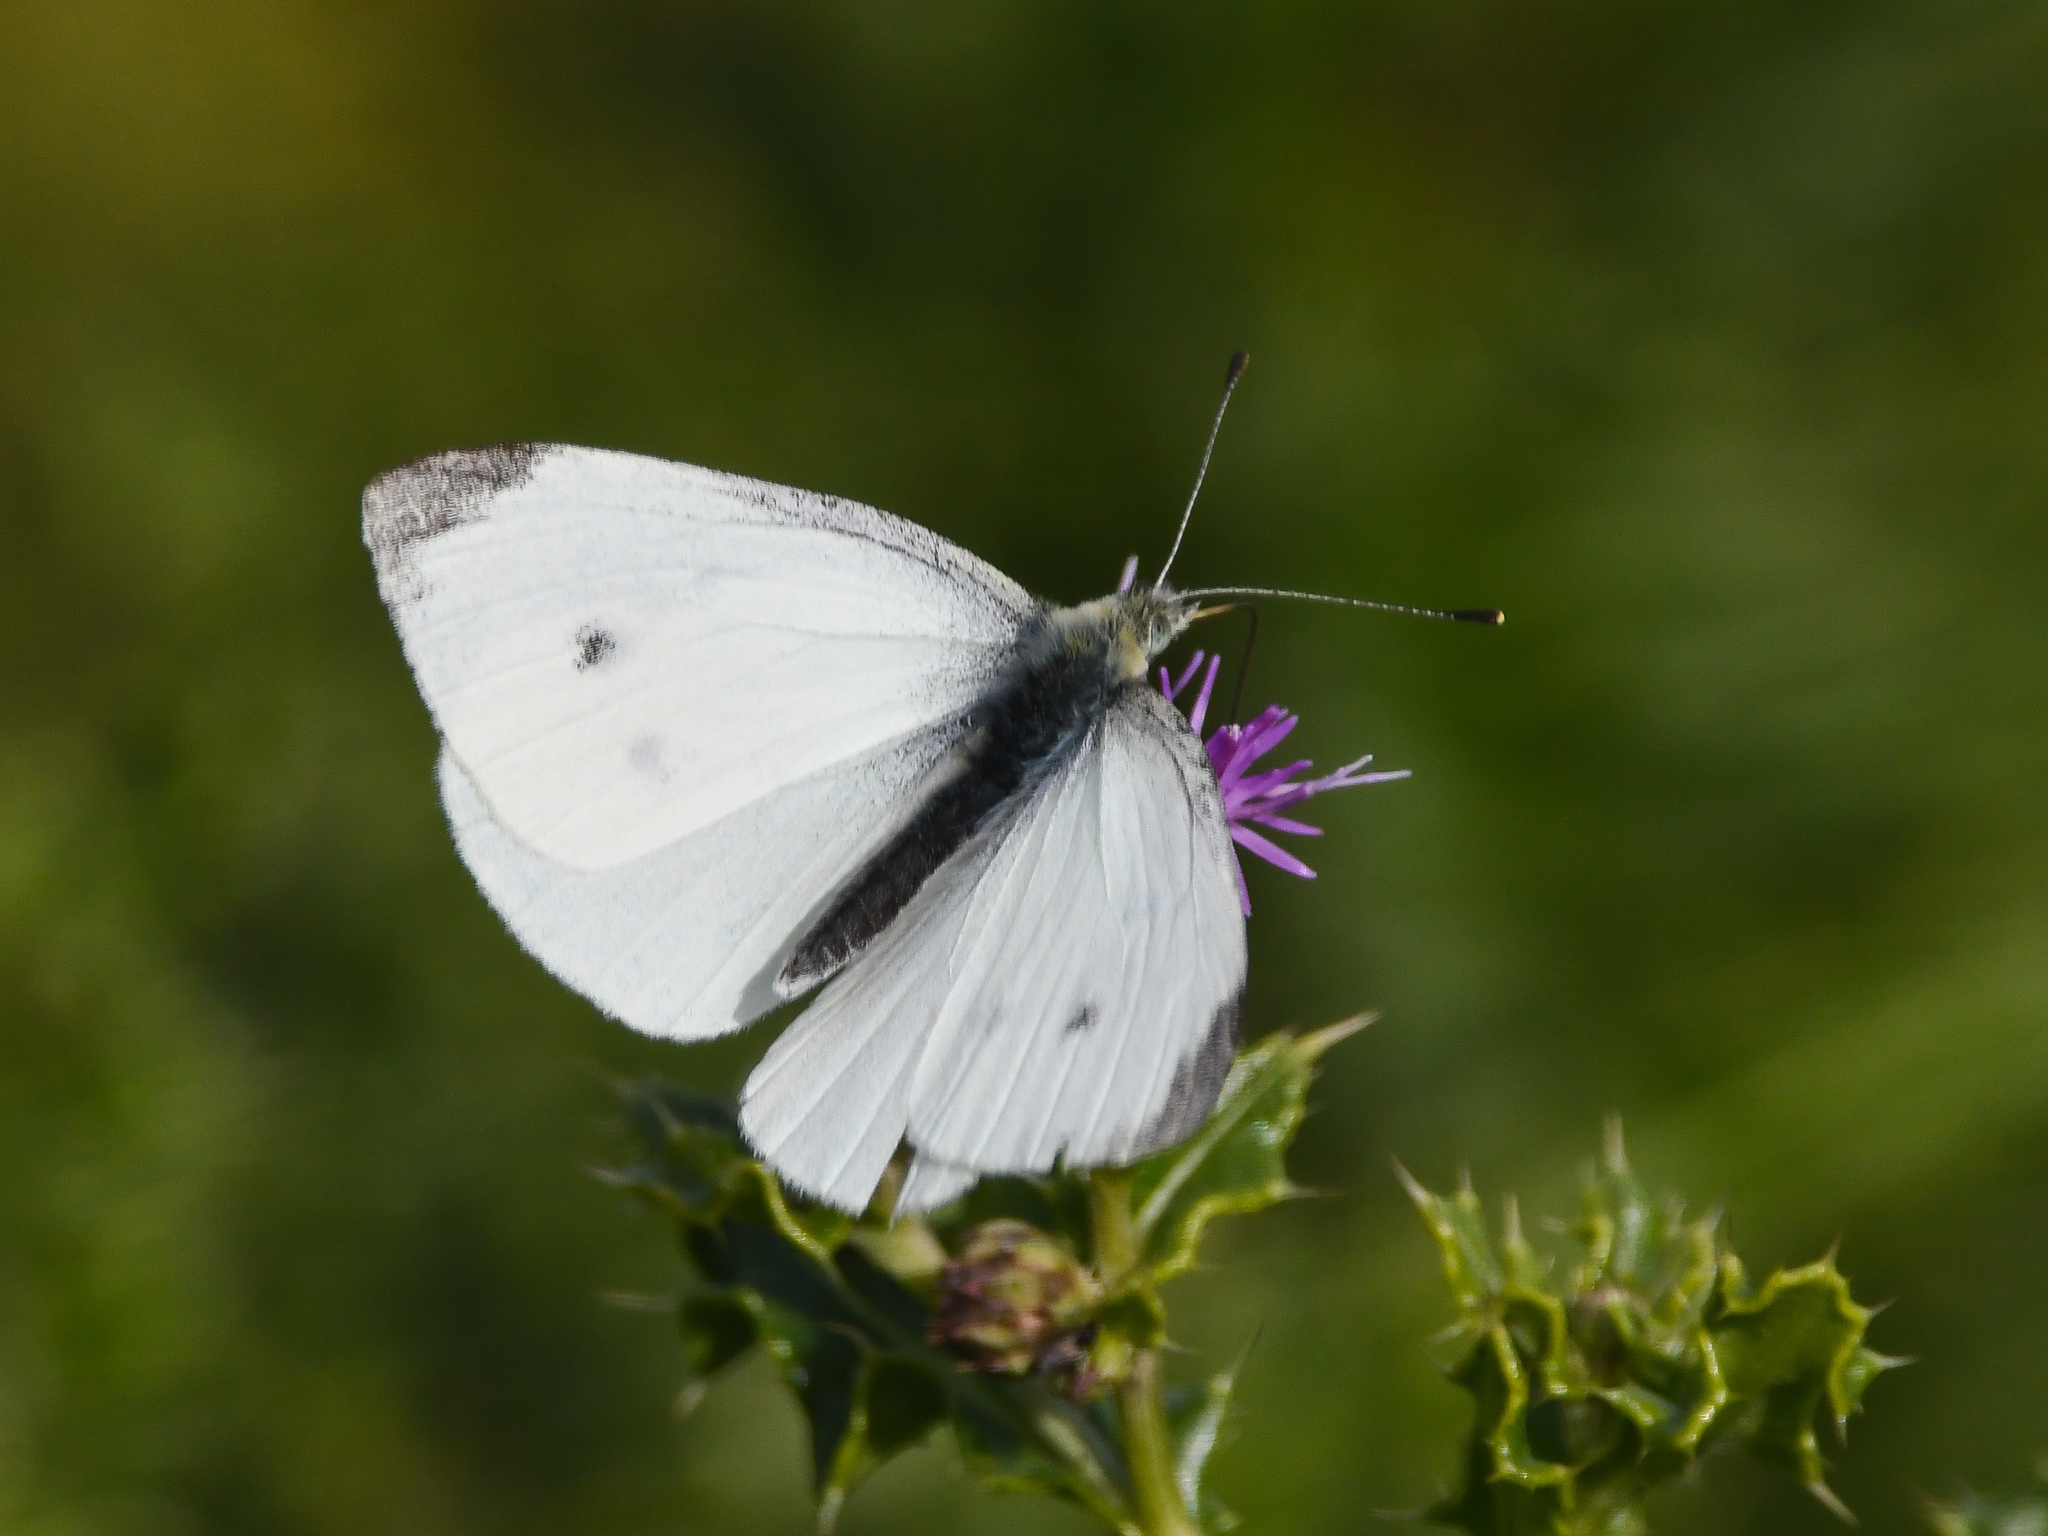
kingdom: Animalia
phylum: Arthropoda
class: Insecta
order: Lepidoptera
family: Pieridae
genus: Pieris
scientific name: Pieris rapae
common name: Small white
